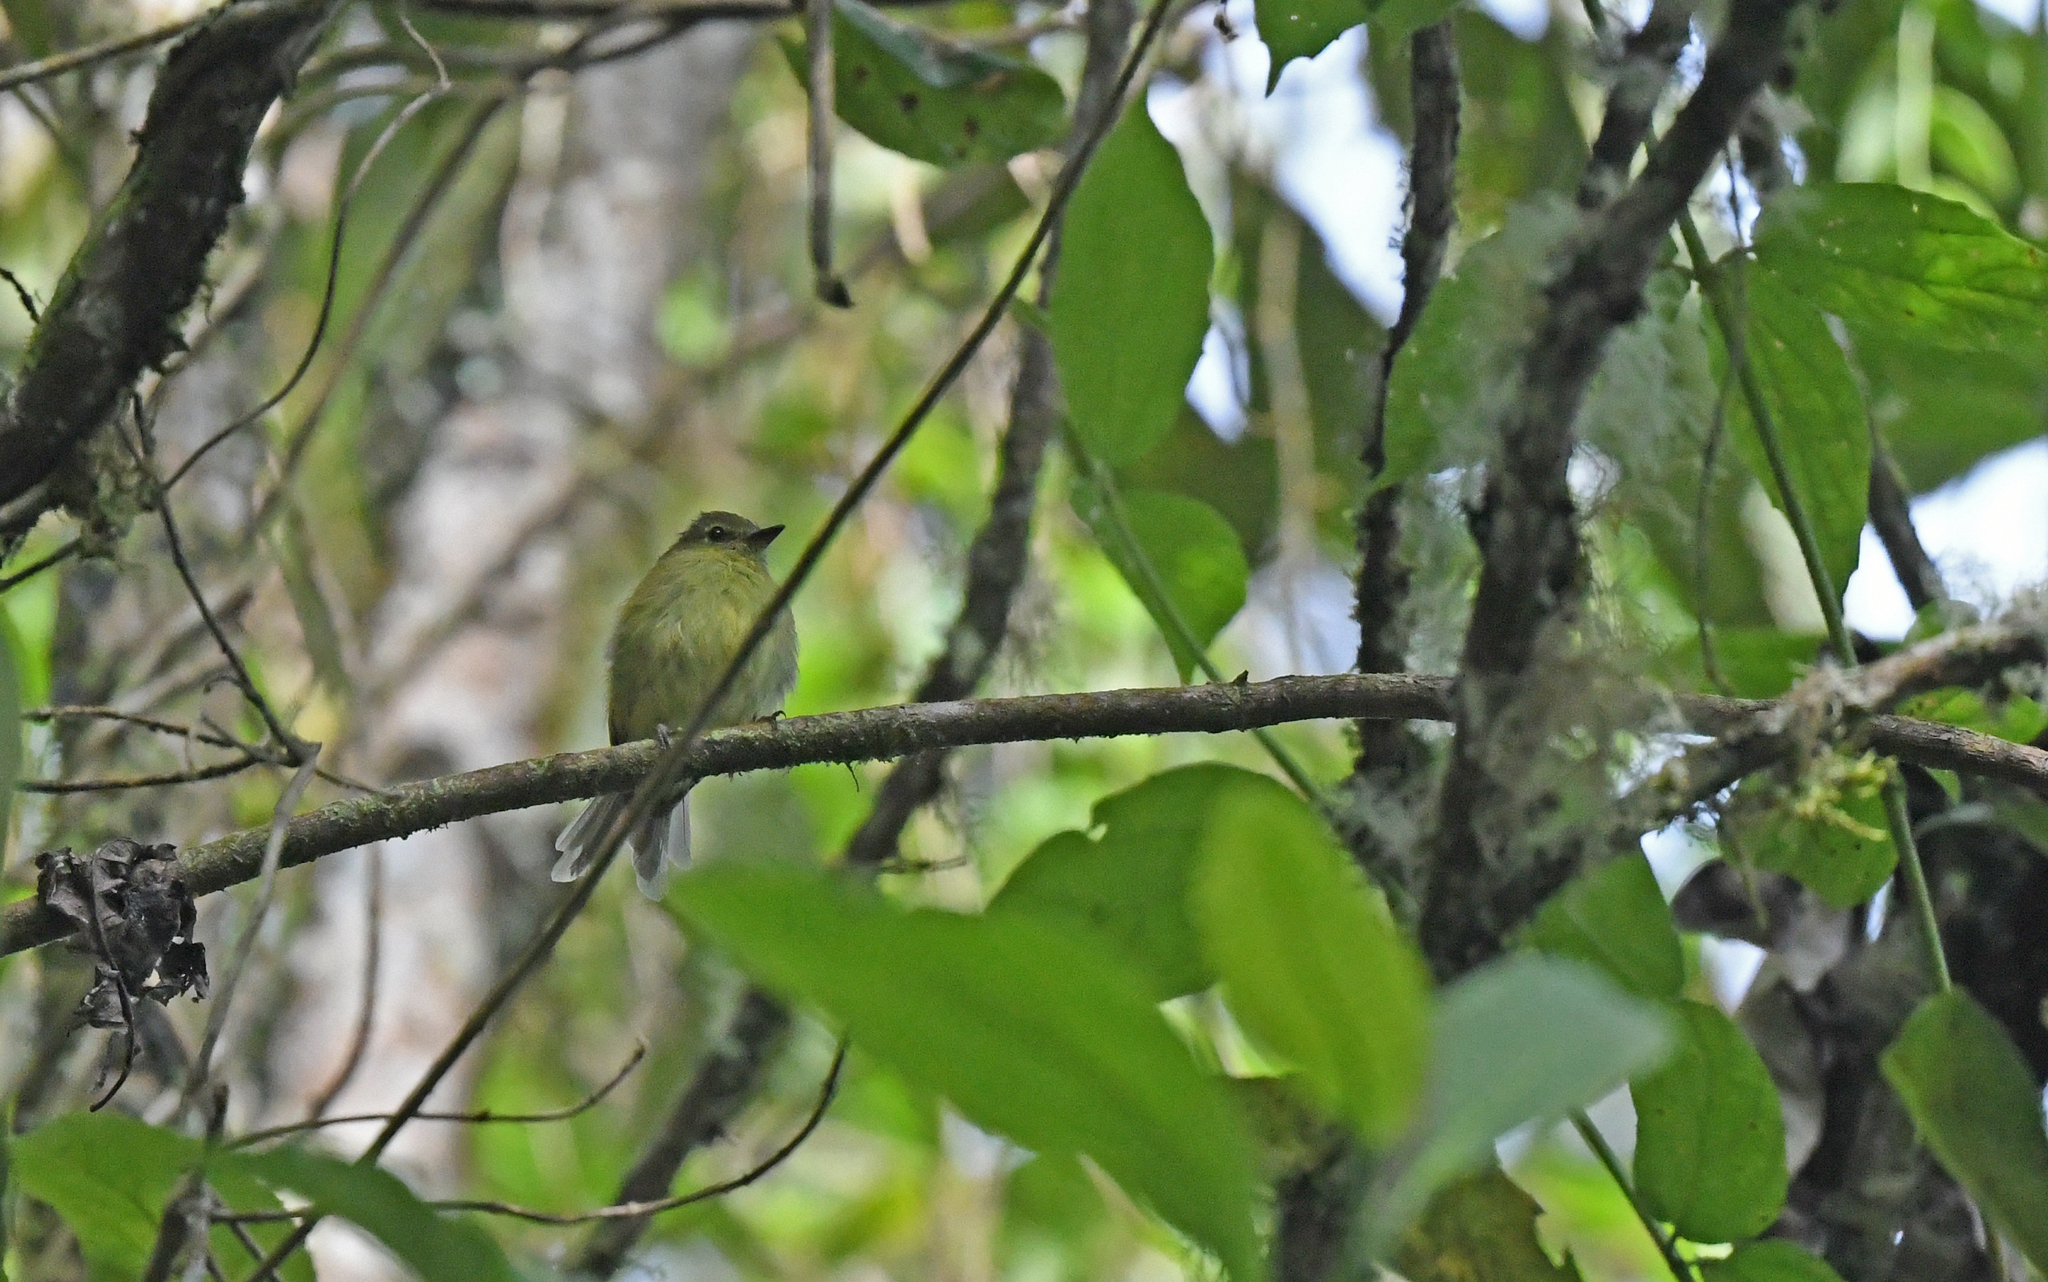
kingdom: Animalia
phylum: Chordata
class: Aves
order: Passeriformes
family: Tyrannidae
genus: Myiophobus
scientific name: Myiophobus flavicans
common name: Flavescent flycatcher
